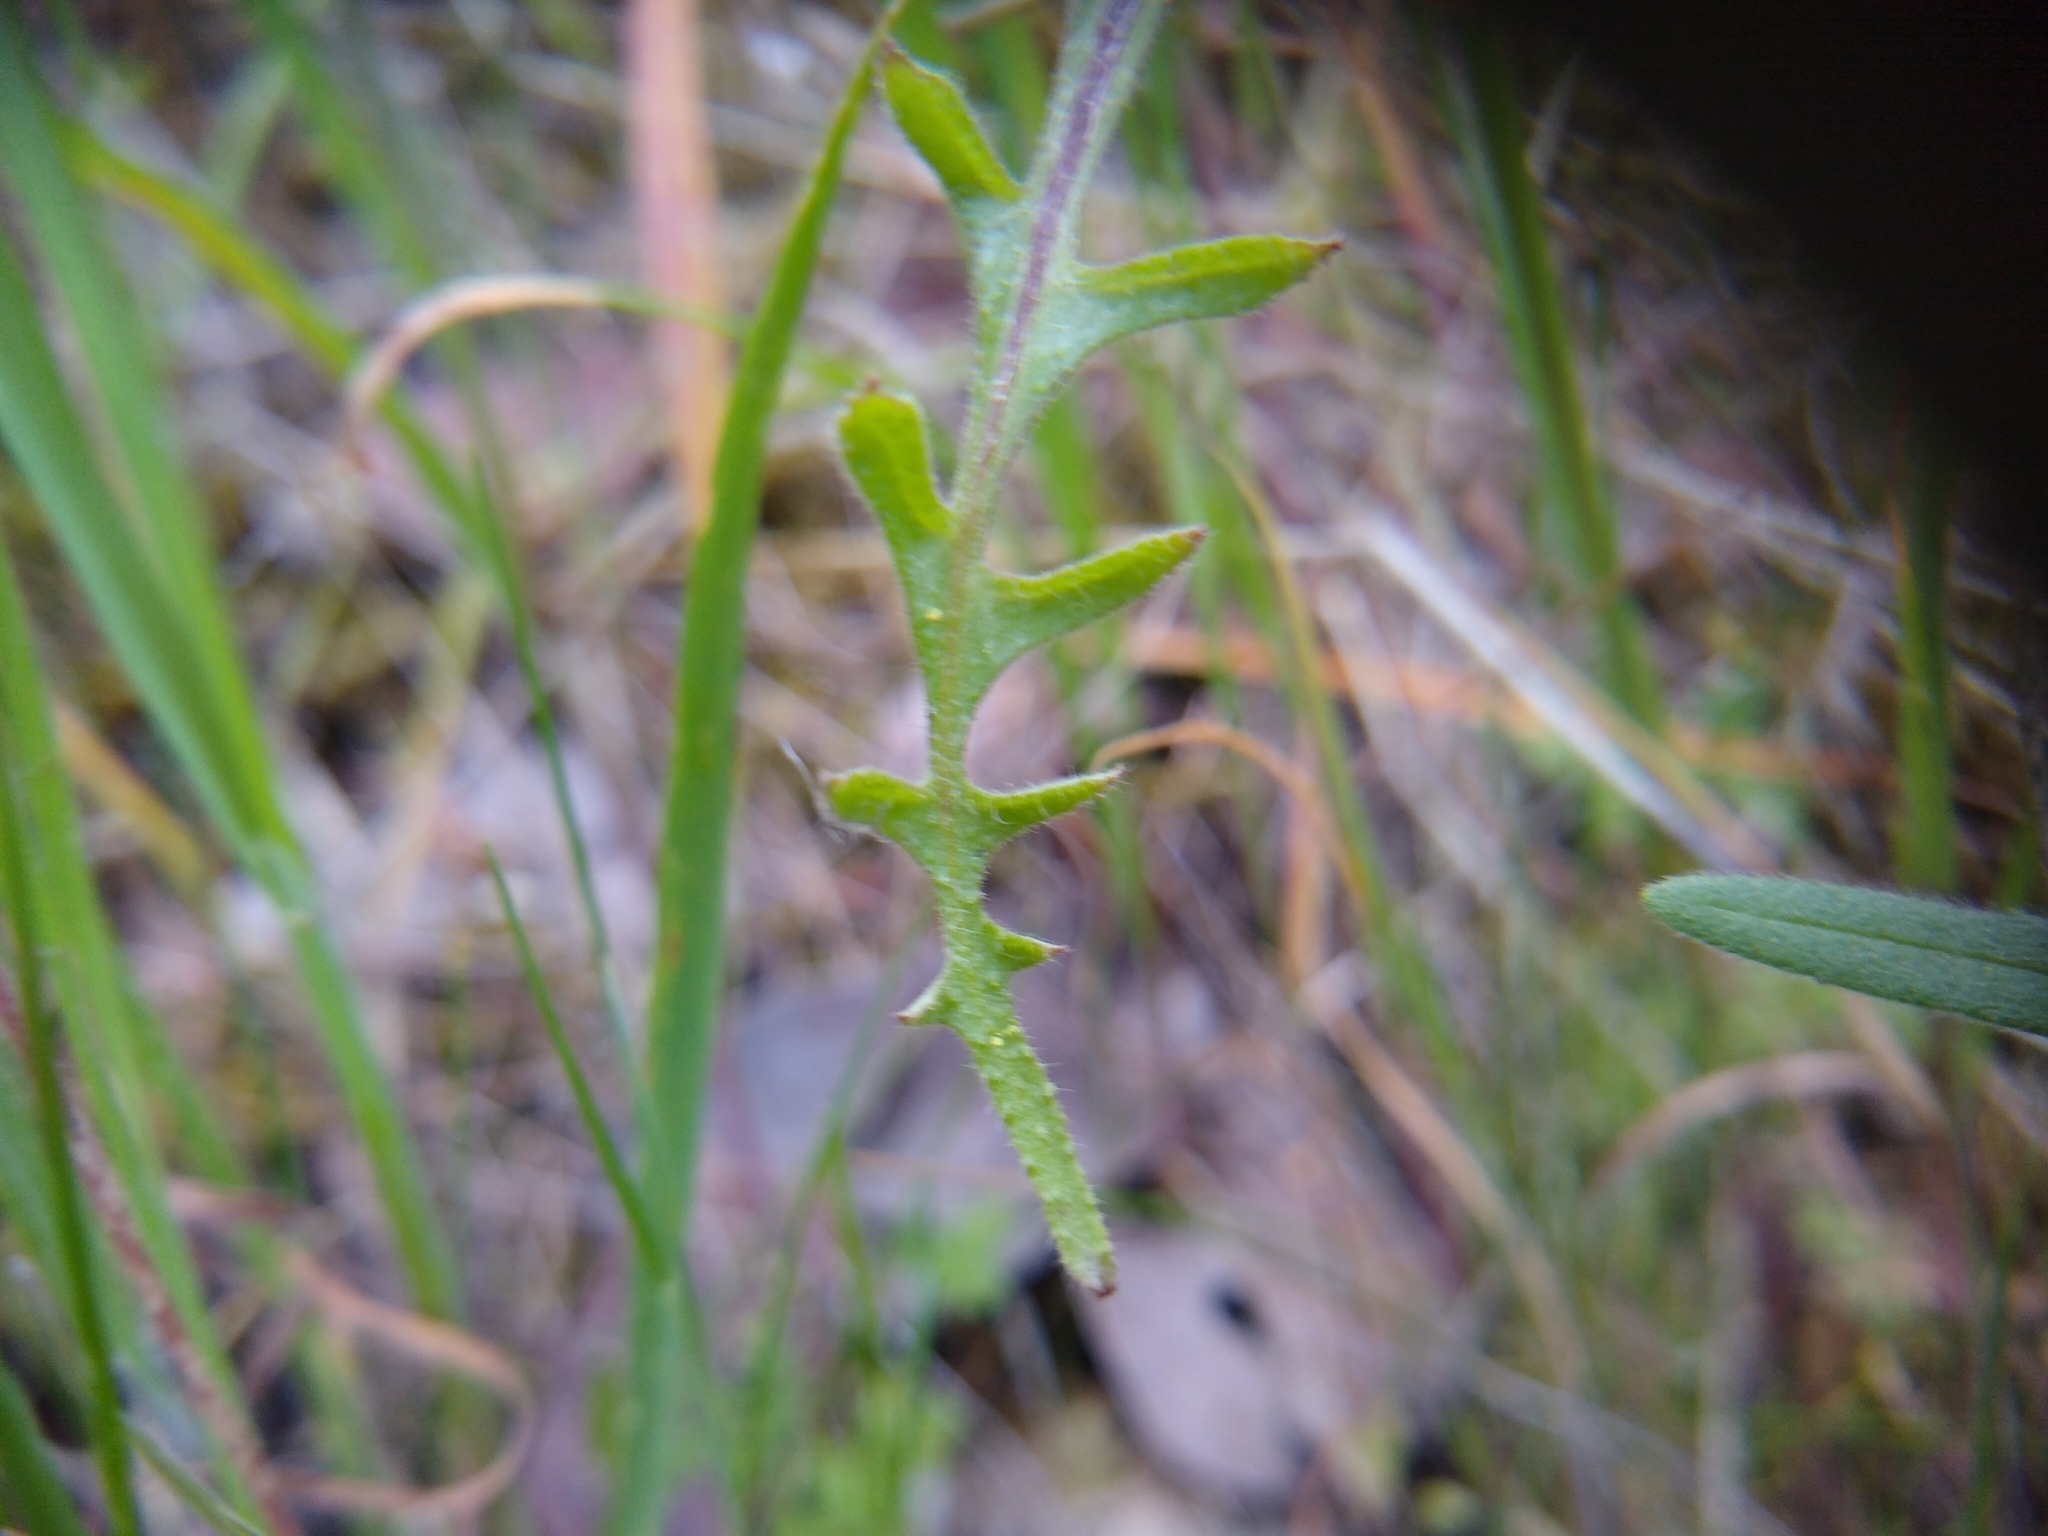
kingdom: Plantae
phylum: Tracheophyta
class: Magnoliopsida
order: Boraginales
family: Hydrophyllaceae
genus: Pholistoma
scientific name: Pholistoma auritum
